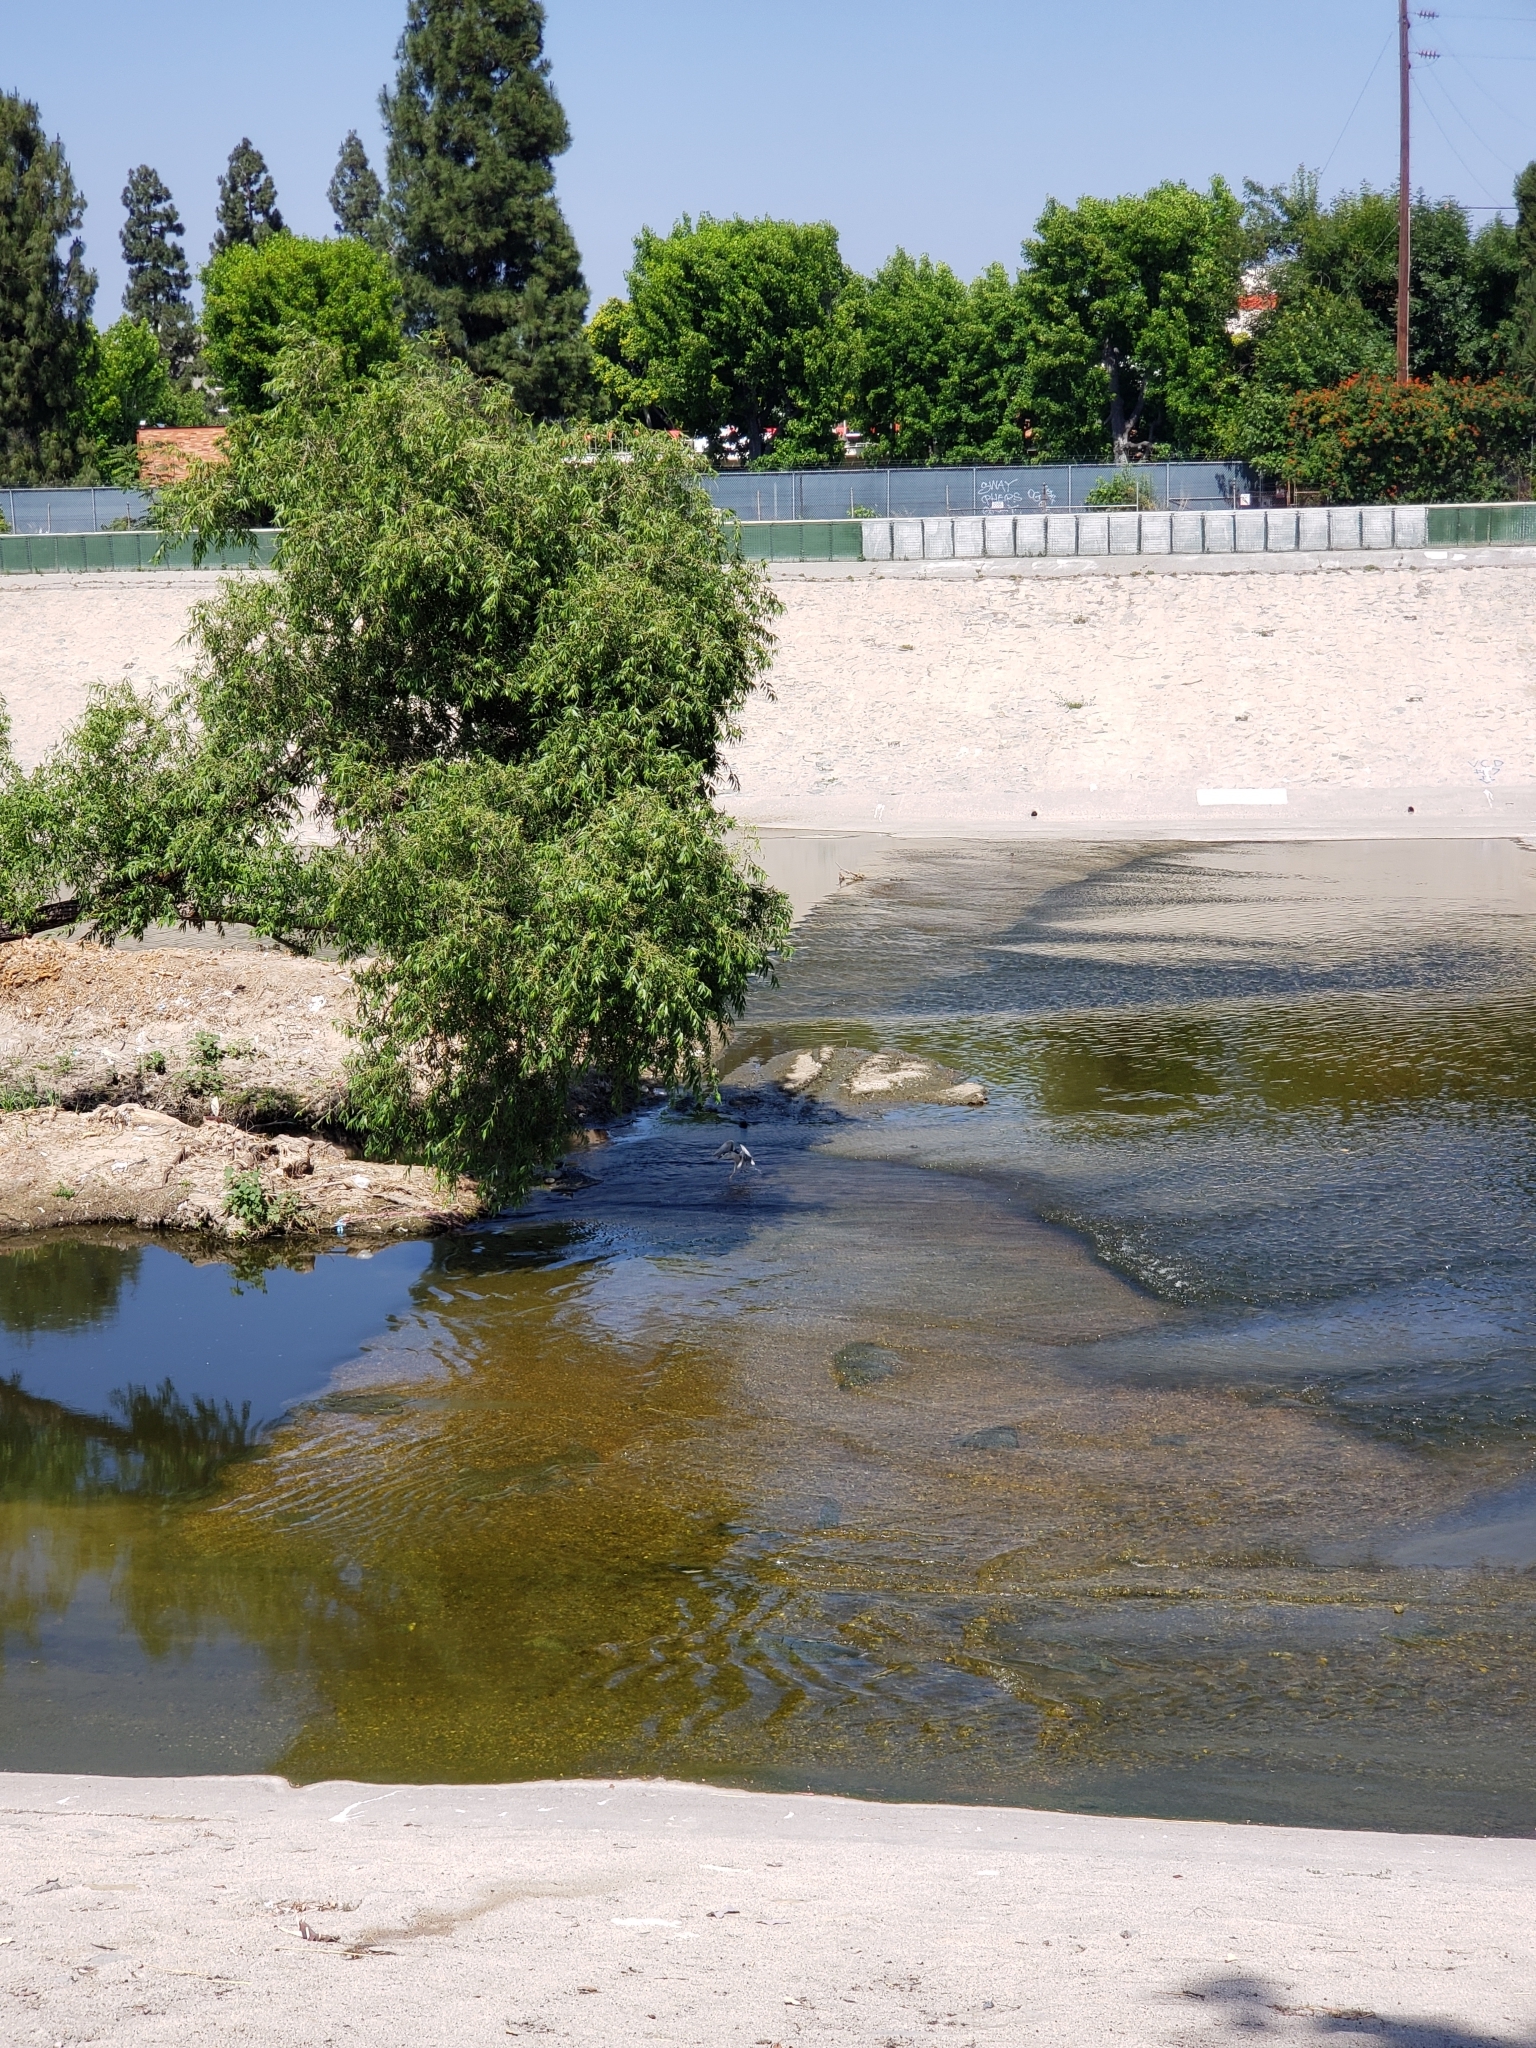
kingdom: Animalia
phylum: Chordata
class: Aves
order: Pelecaniformes
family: Ardeidae
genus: Nycticorax
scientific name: Nycticorax nycticorax
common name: Black-crowned night heron
